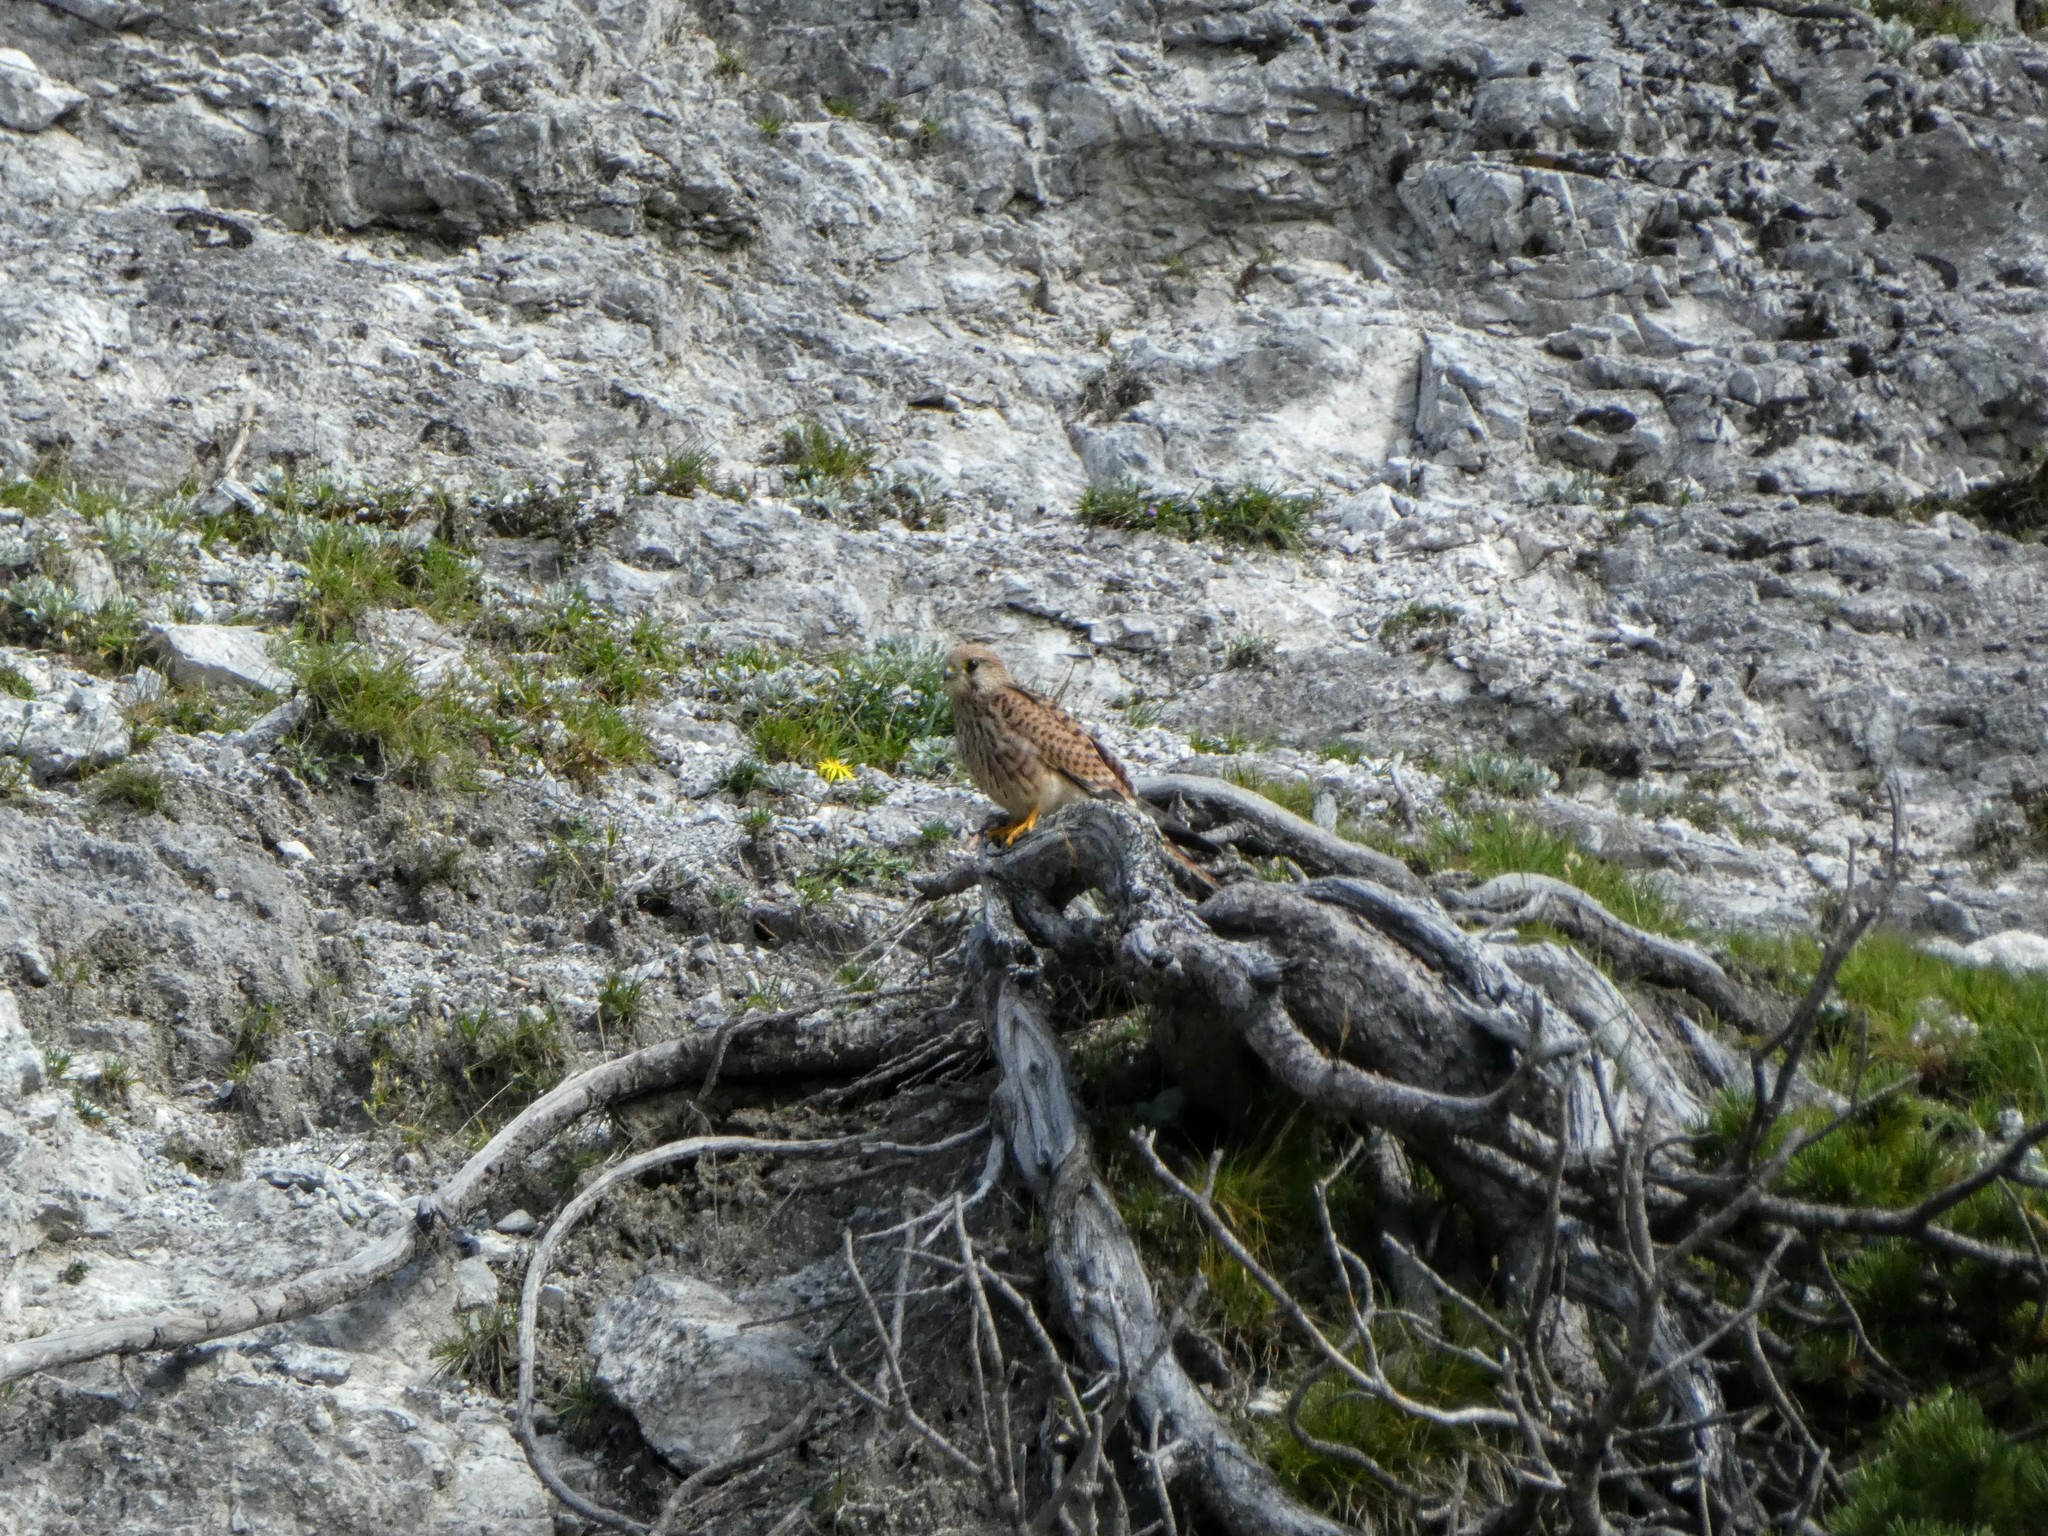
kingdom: Animalia
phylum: Chordata
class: Aves
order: Falconiformes
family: Falconidae
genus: Falco
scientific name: Falco tinnunculus
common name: Common kestrel
